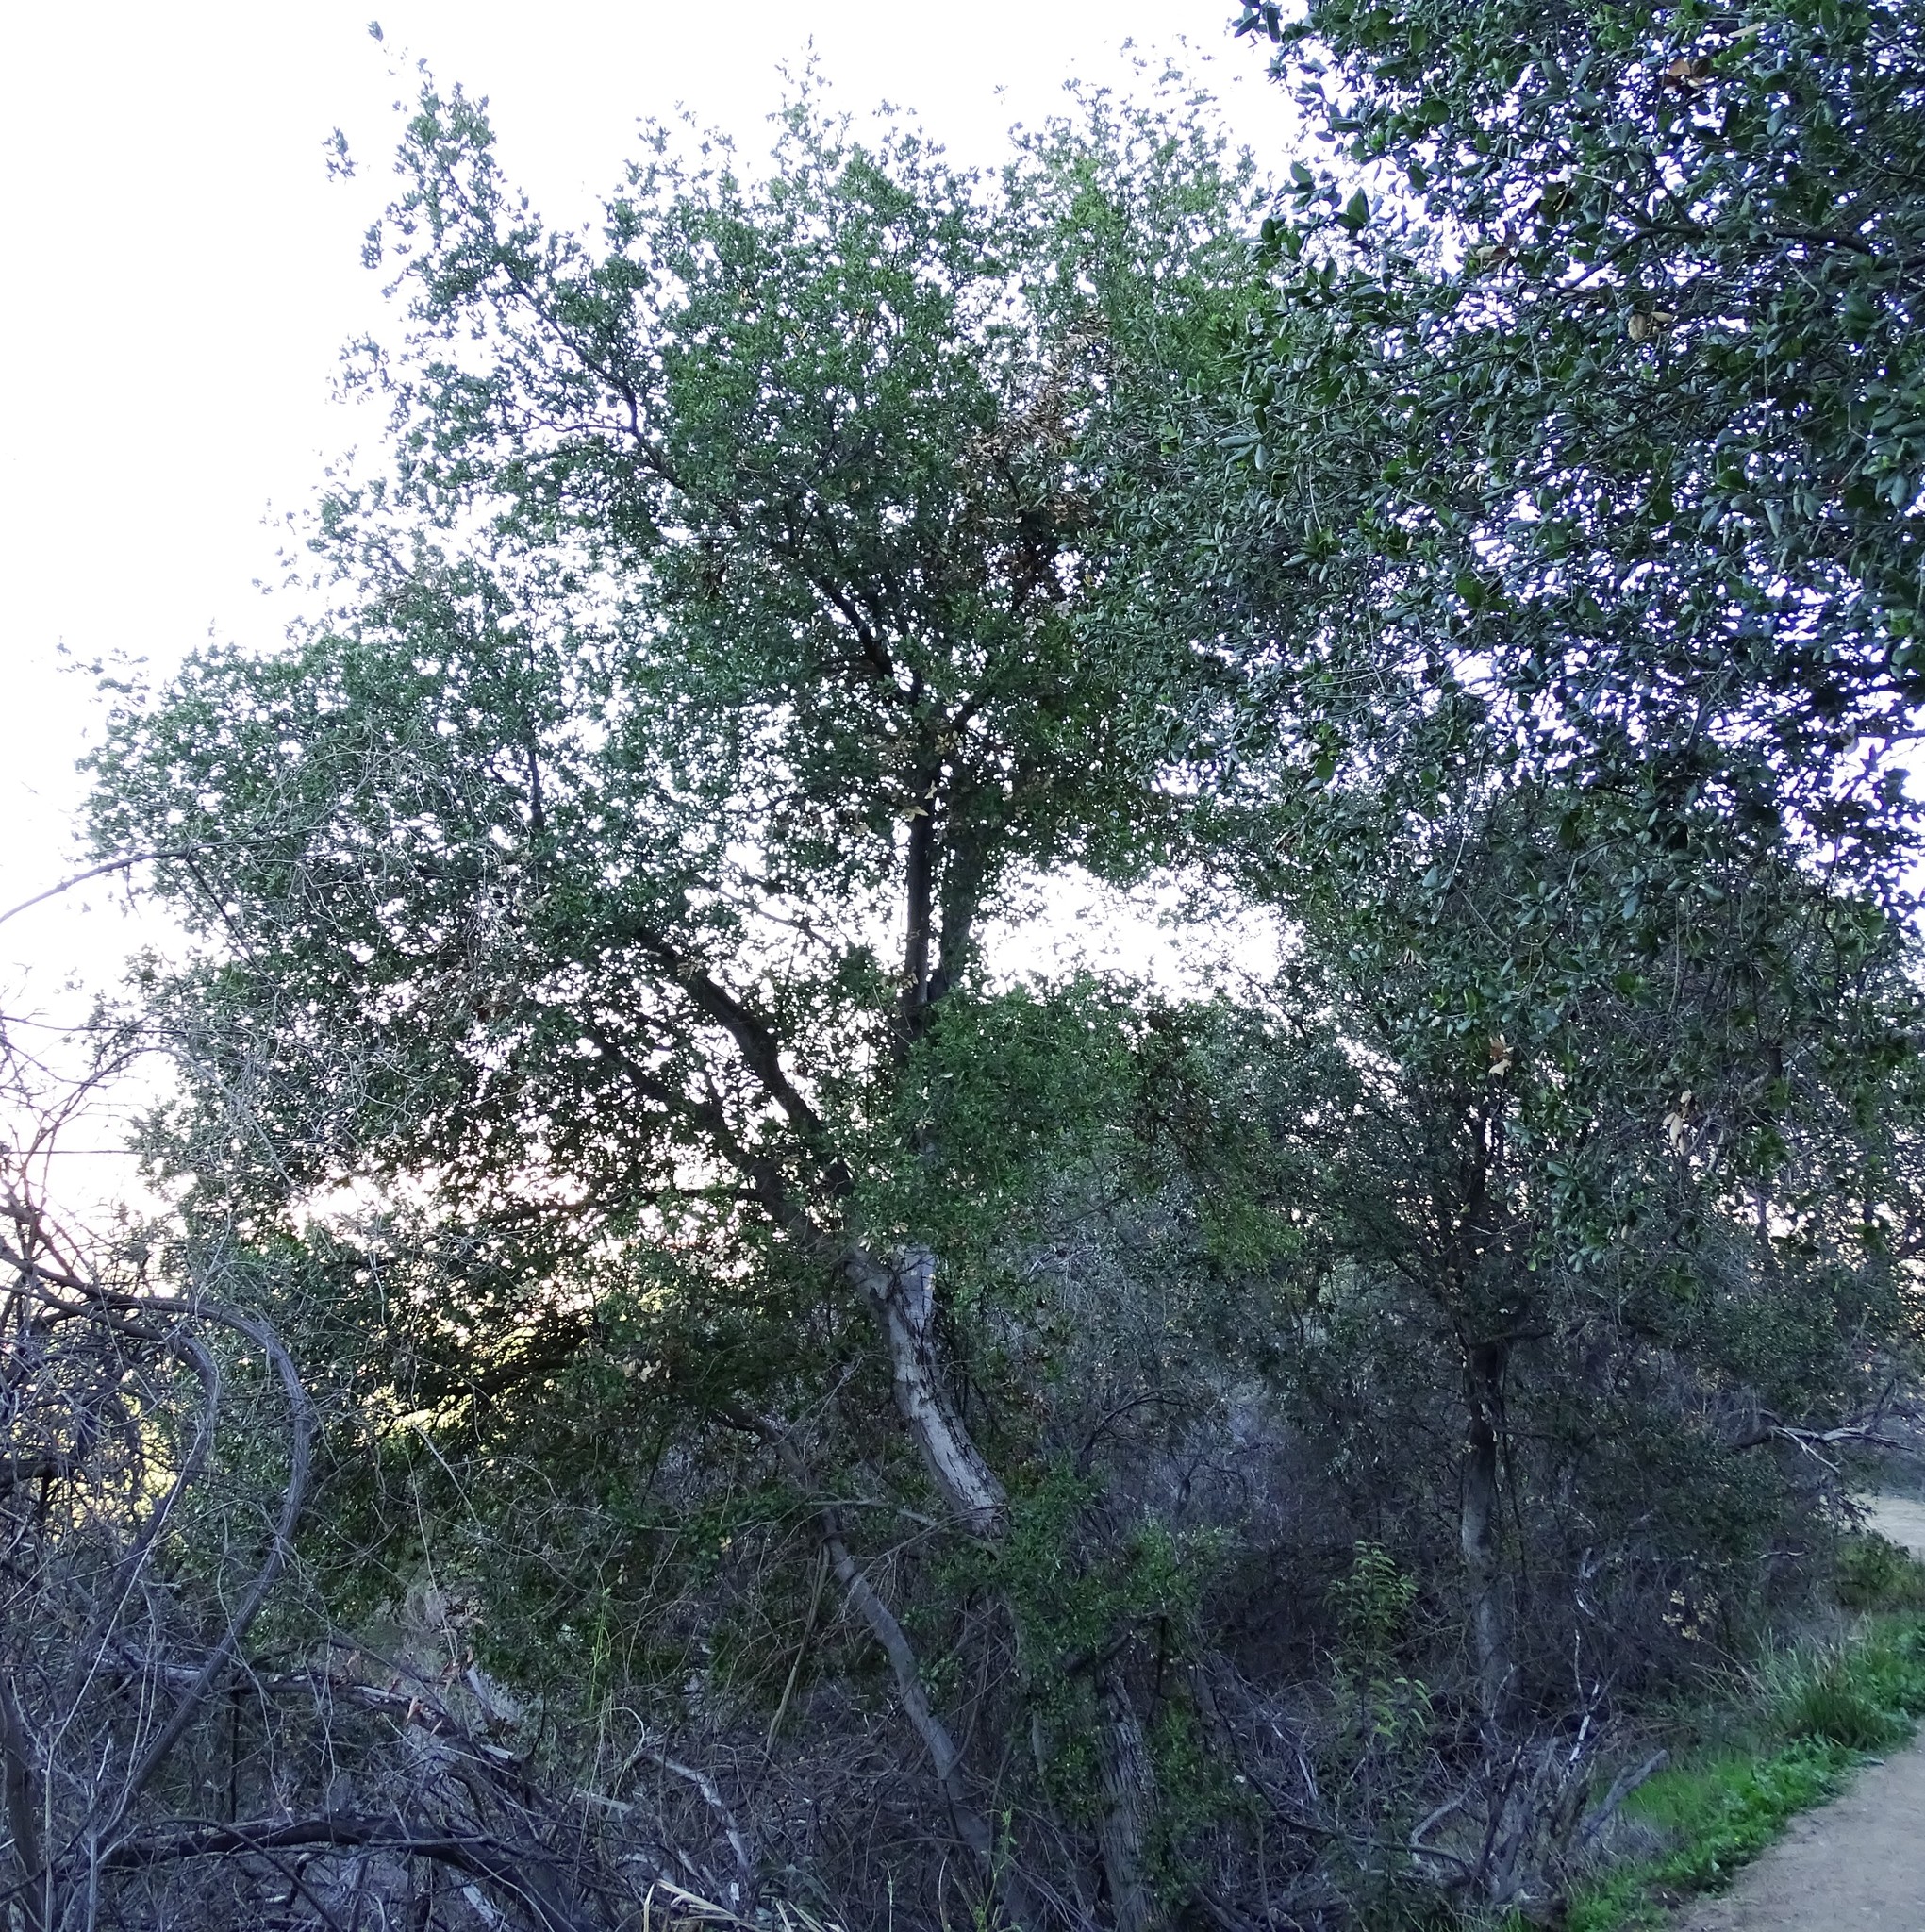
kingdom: Plantae
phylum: Tracheophyta
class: Magnoliopsida
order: Fagales
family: Fagaceae
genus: Quercus
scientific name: Quercus agrifolia
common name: California live oak
